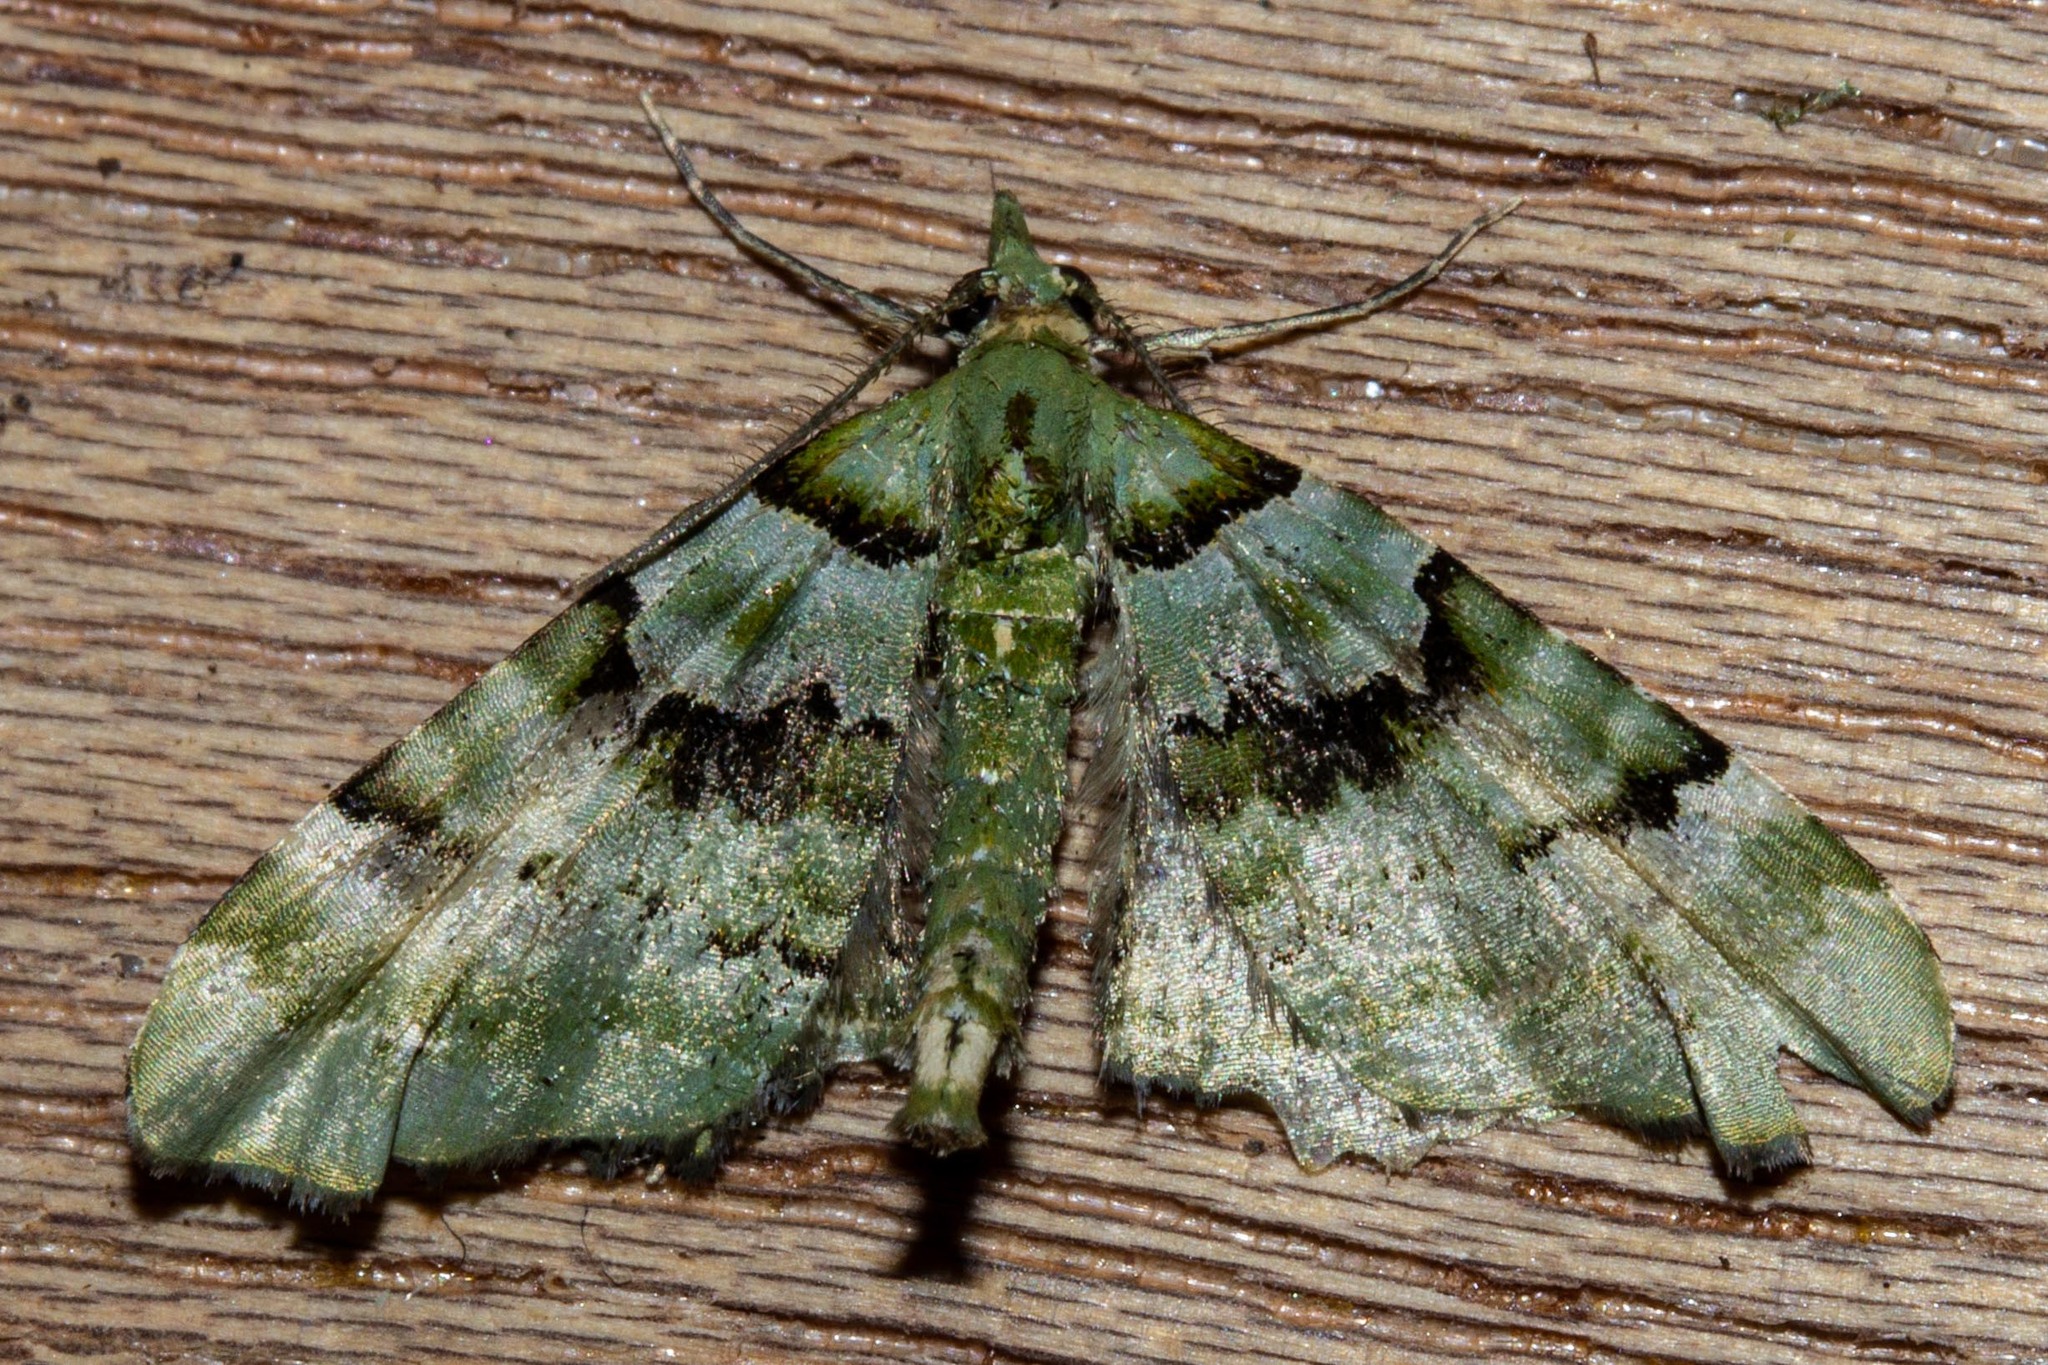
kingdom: Animalia
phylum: Arthropoda
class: Insecta
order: Lepidoptera
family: Geometridae
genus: Elvia
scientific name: Elvia glaucata
